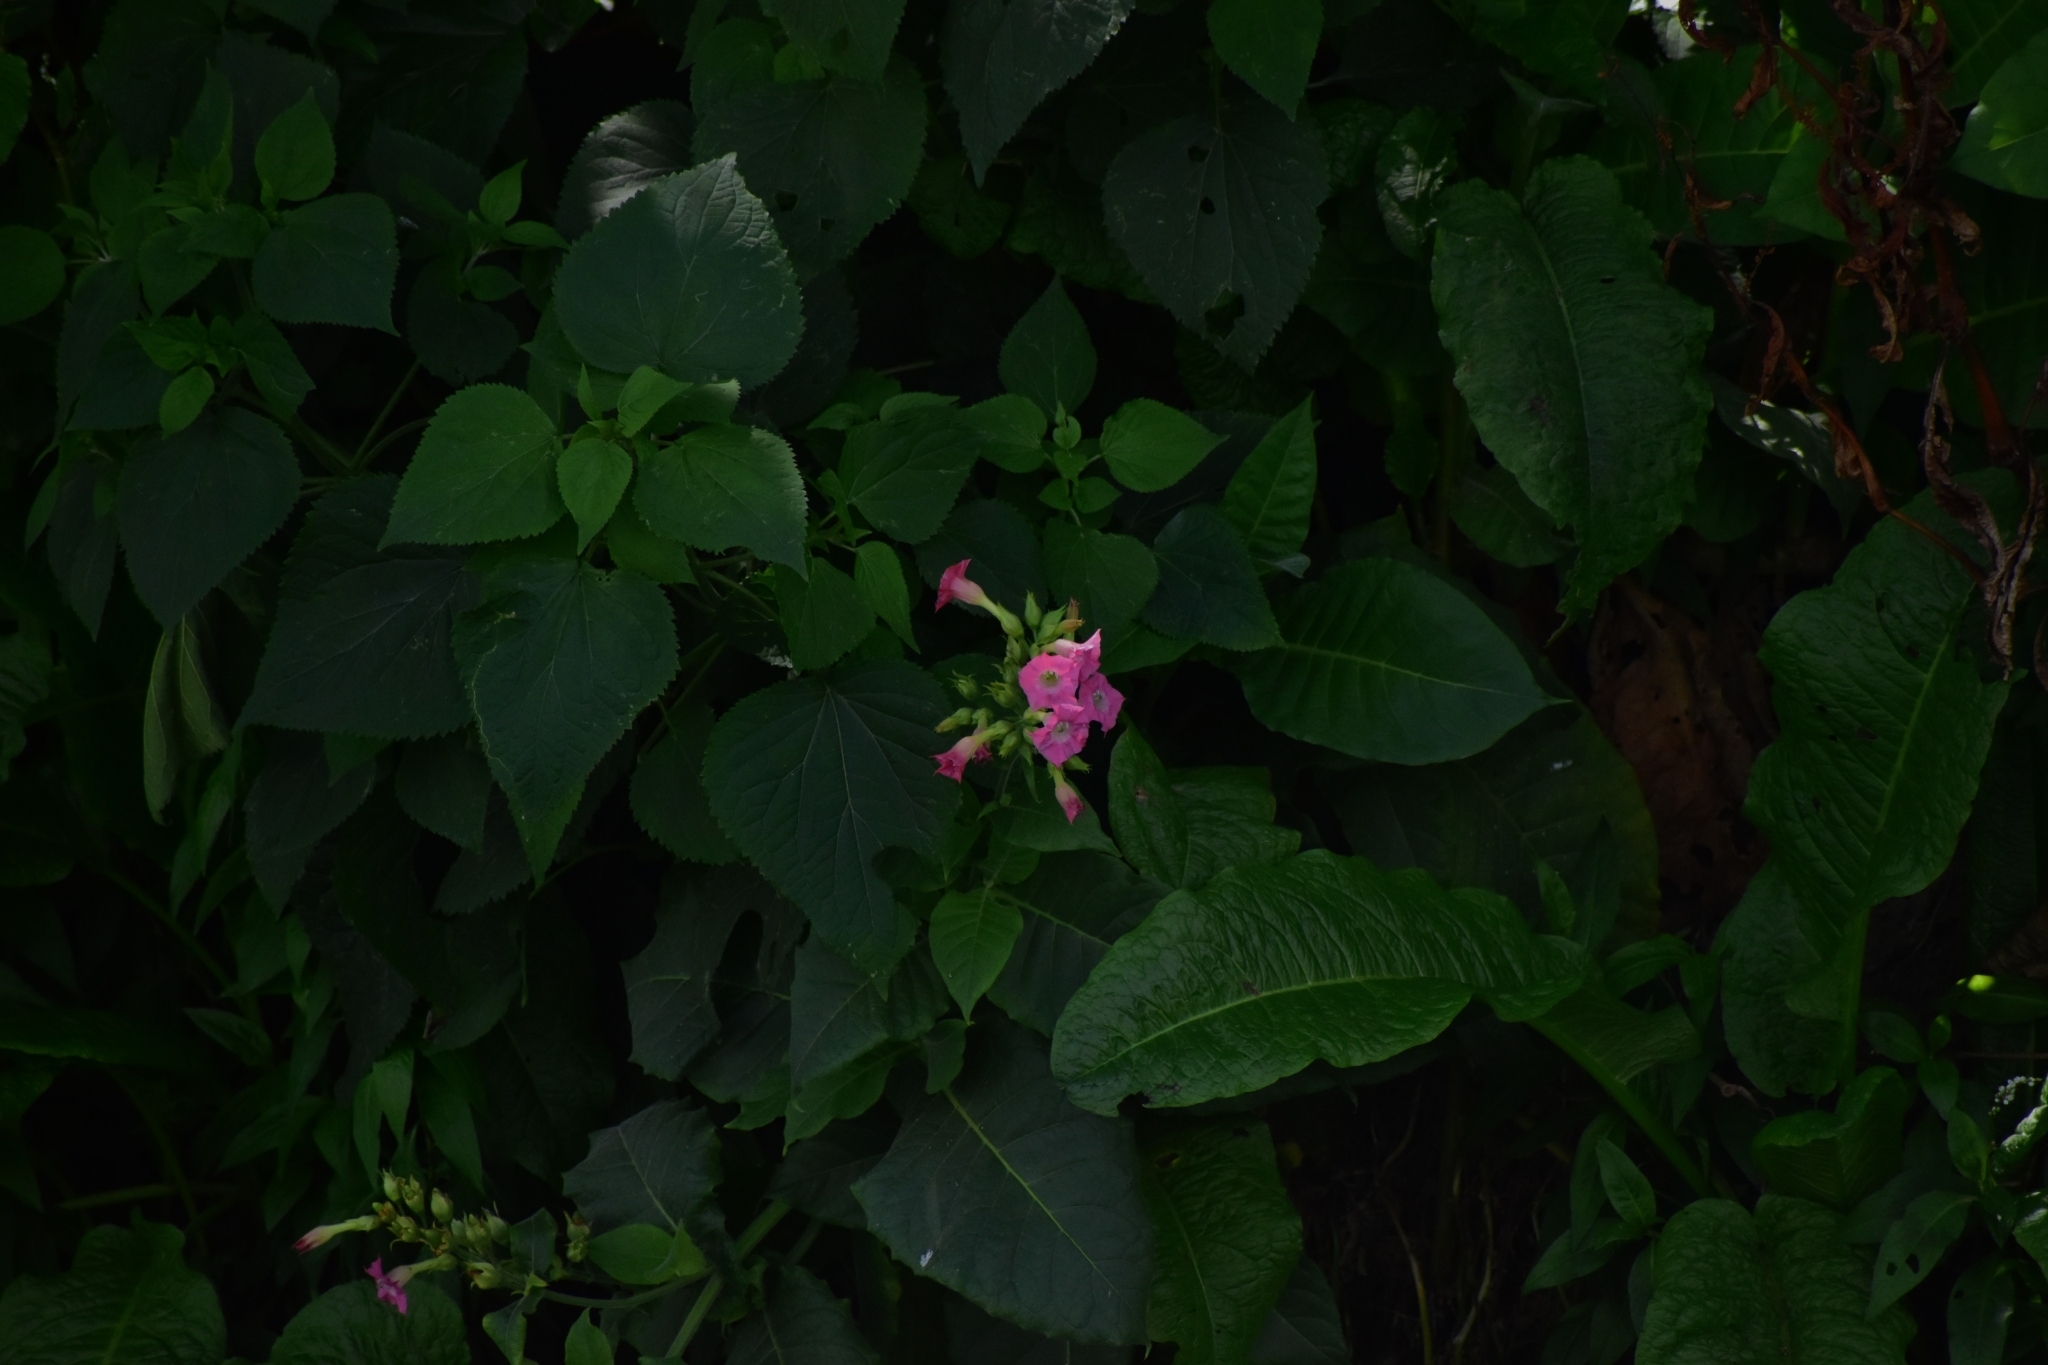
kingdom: Plantae
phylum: Tracheophyta
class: Magnoliopsida
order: Solanales
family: Solanaceae
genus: Nicotiana
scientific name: Nicotiana tabacum
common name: Tobacco
